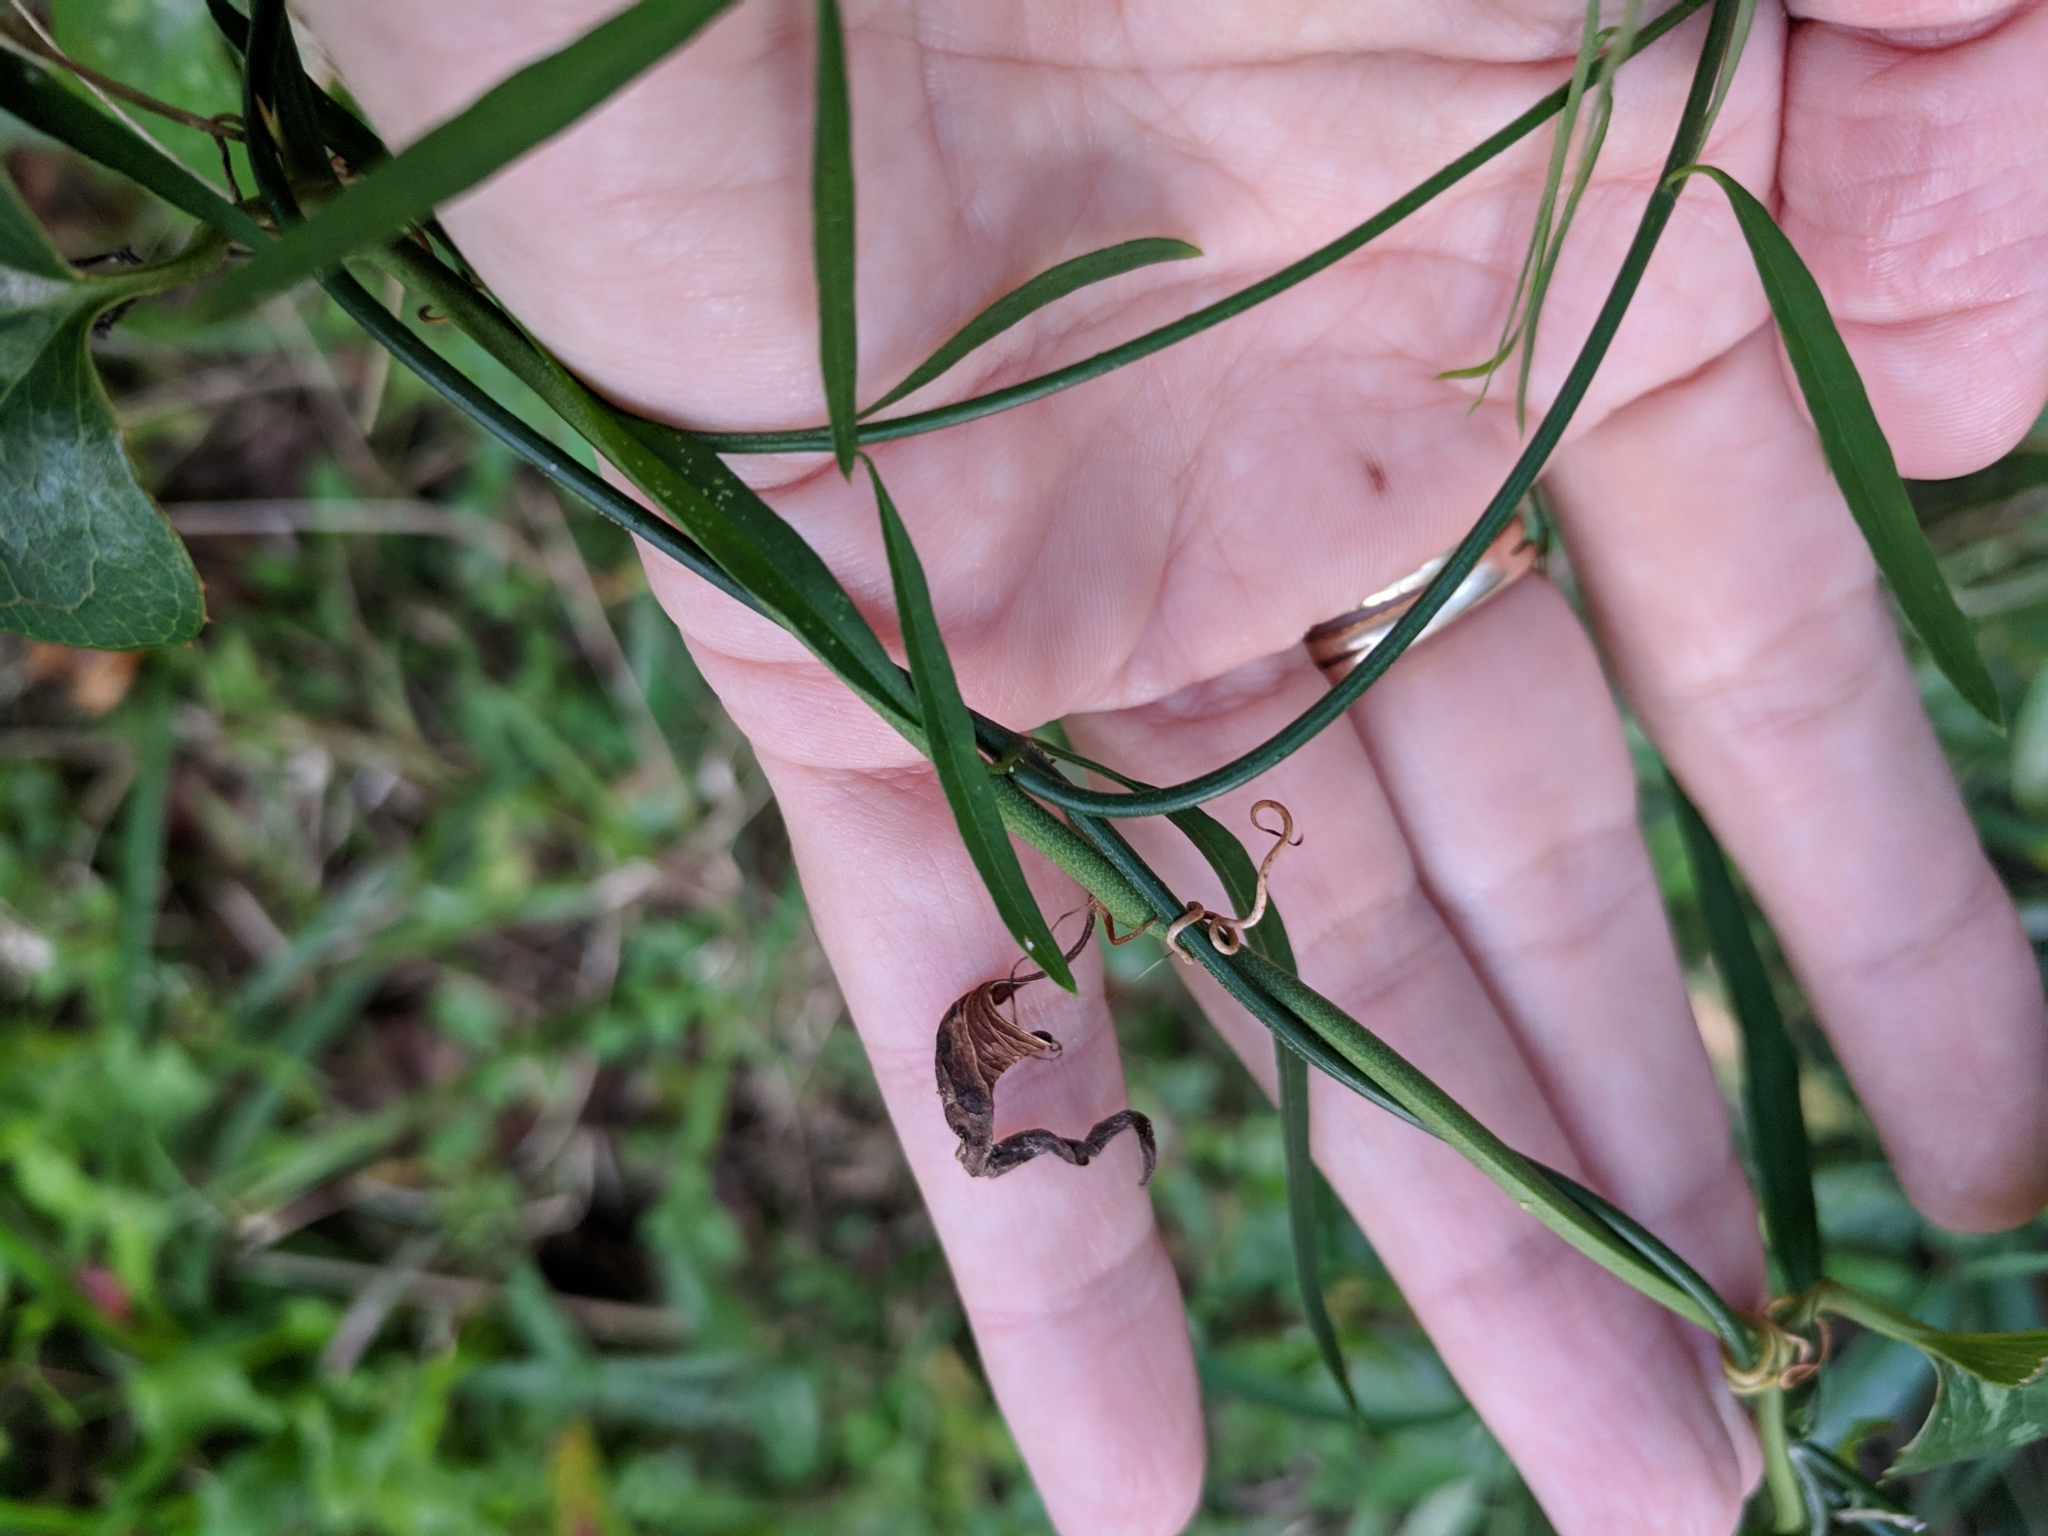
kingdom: Plantae
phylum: Tracheophyta
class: Magnoliopsida
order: Gentianales
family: Apocynaceae
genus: Orthosia
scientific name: Orthosia scoparia
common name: Leafless swallow-wort
